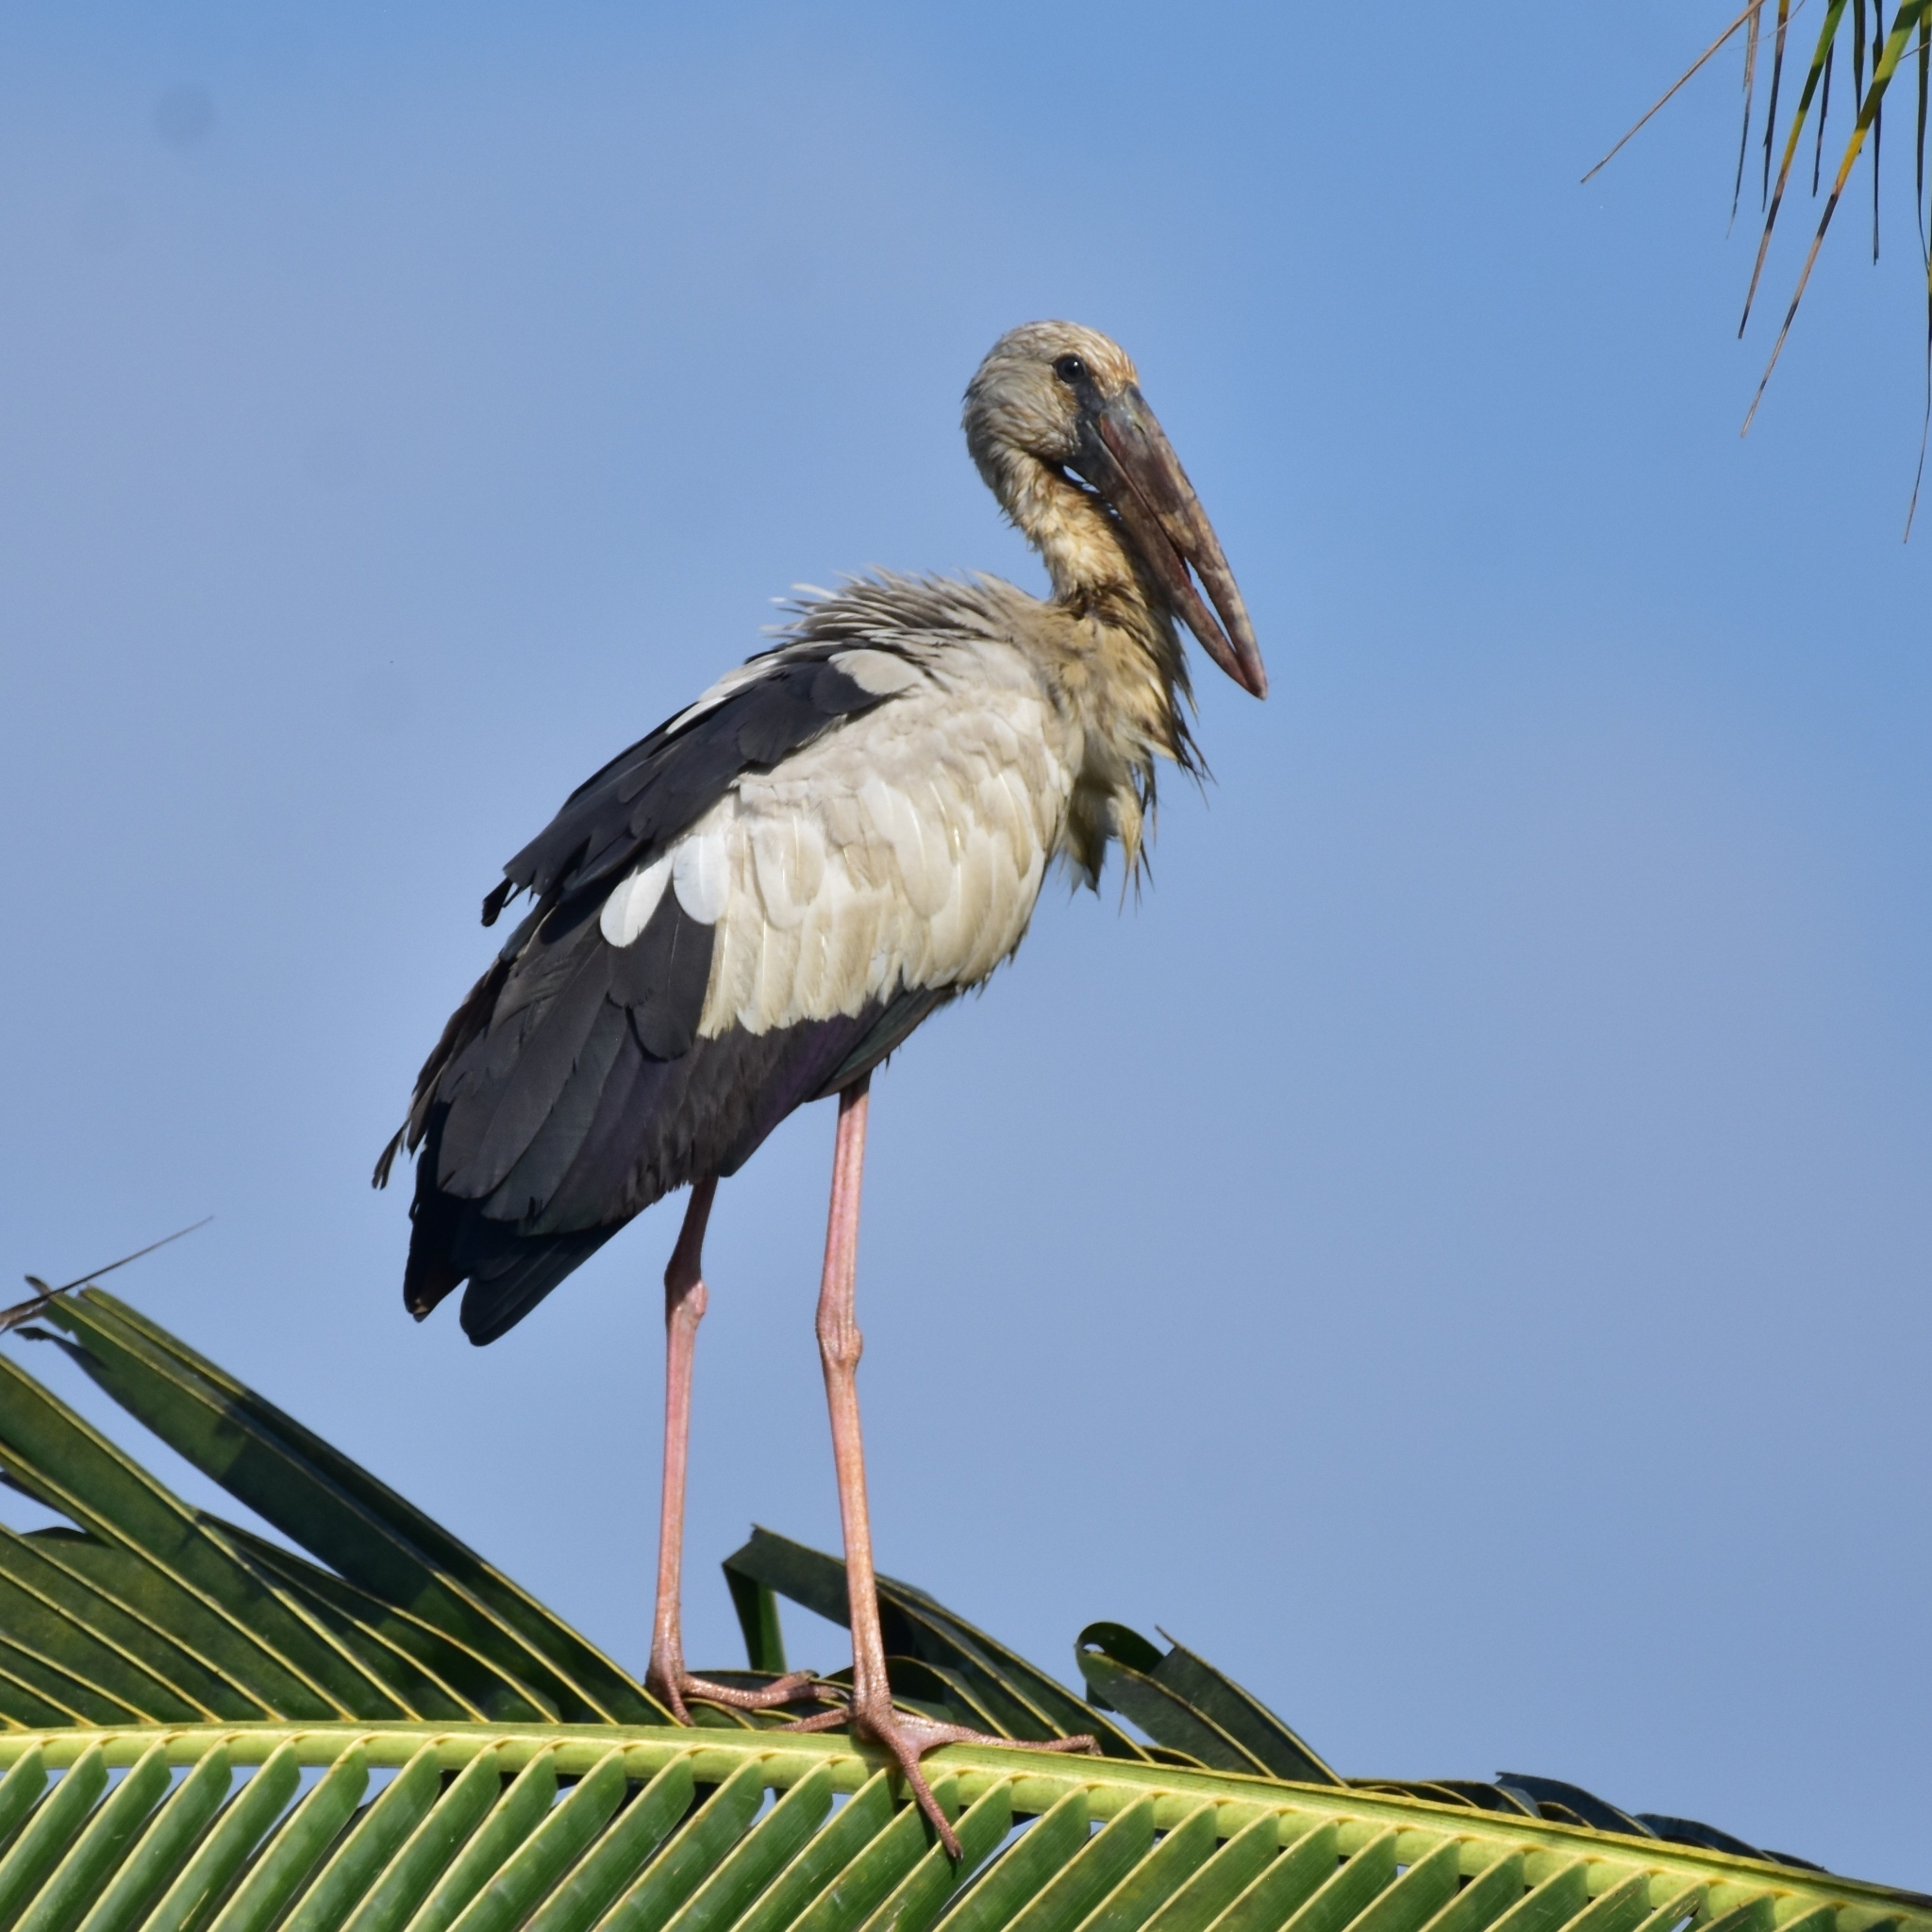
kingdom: Animalia
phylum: Chordata
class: Aves
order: Ciconiiformes
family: Ciconiidae
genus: Anastomus
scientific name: Anastomus oscitans
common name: Asian openbill
